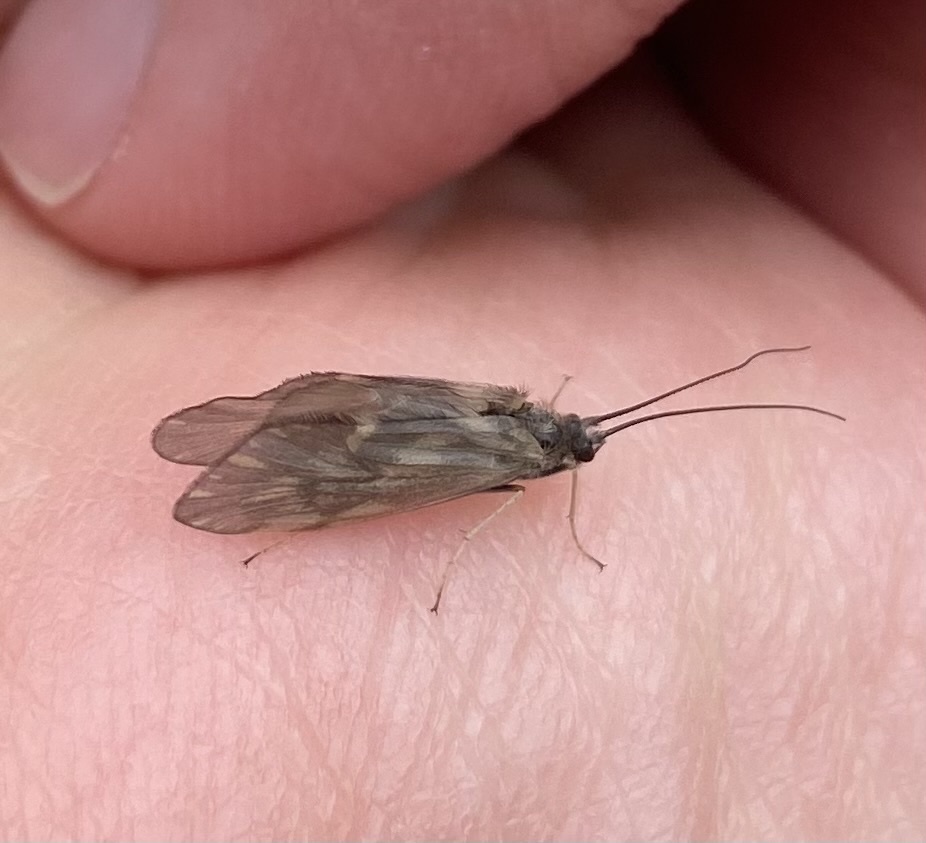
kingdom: Animalia
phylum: Arthropoda
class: Insecta
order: Trichoptera
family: Brachycentridae
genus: Brachycentrus
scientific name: Brachycentrus subnubilis
